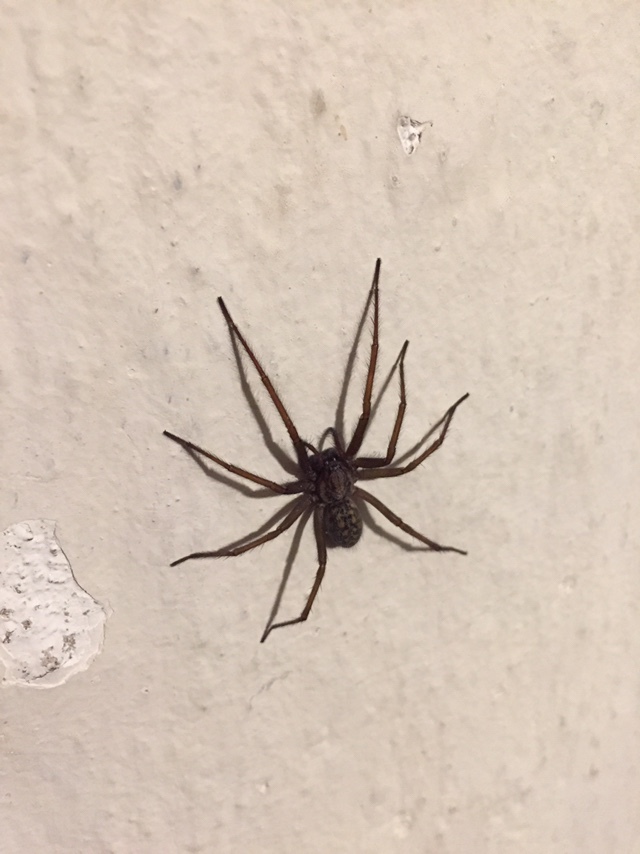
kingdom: Animalia
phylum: Arthropoda
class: Arachnida
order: Araneae
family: Agelenidae
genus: Eratigena
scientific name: Eratigena atrica
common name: Giant house spider
